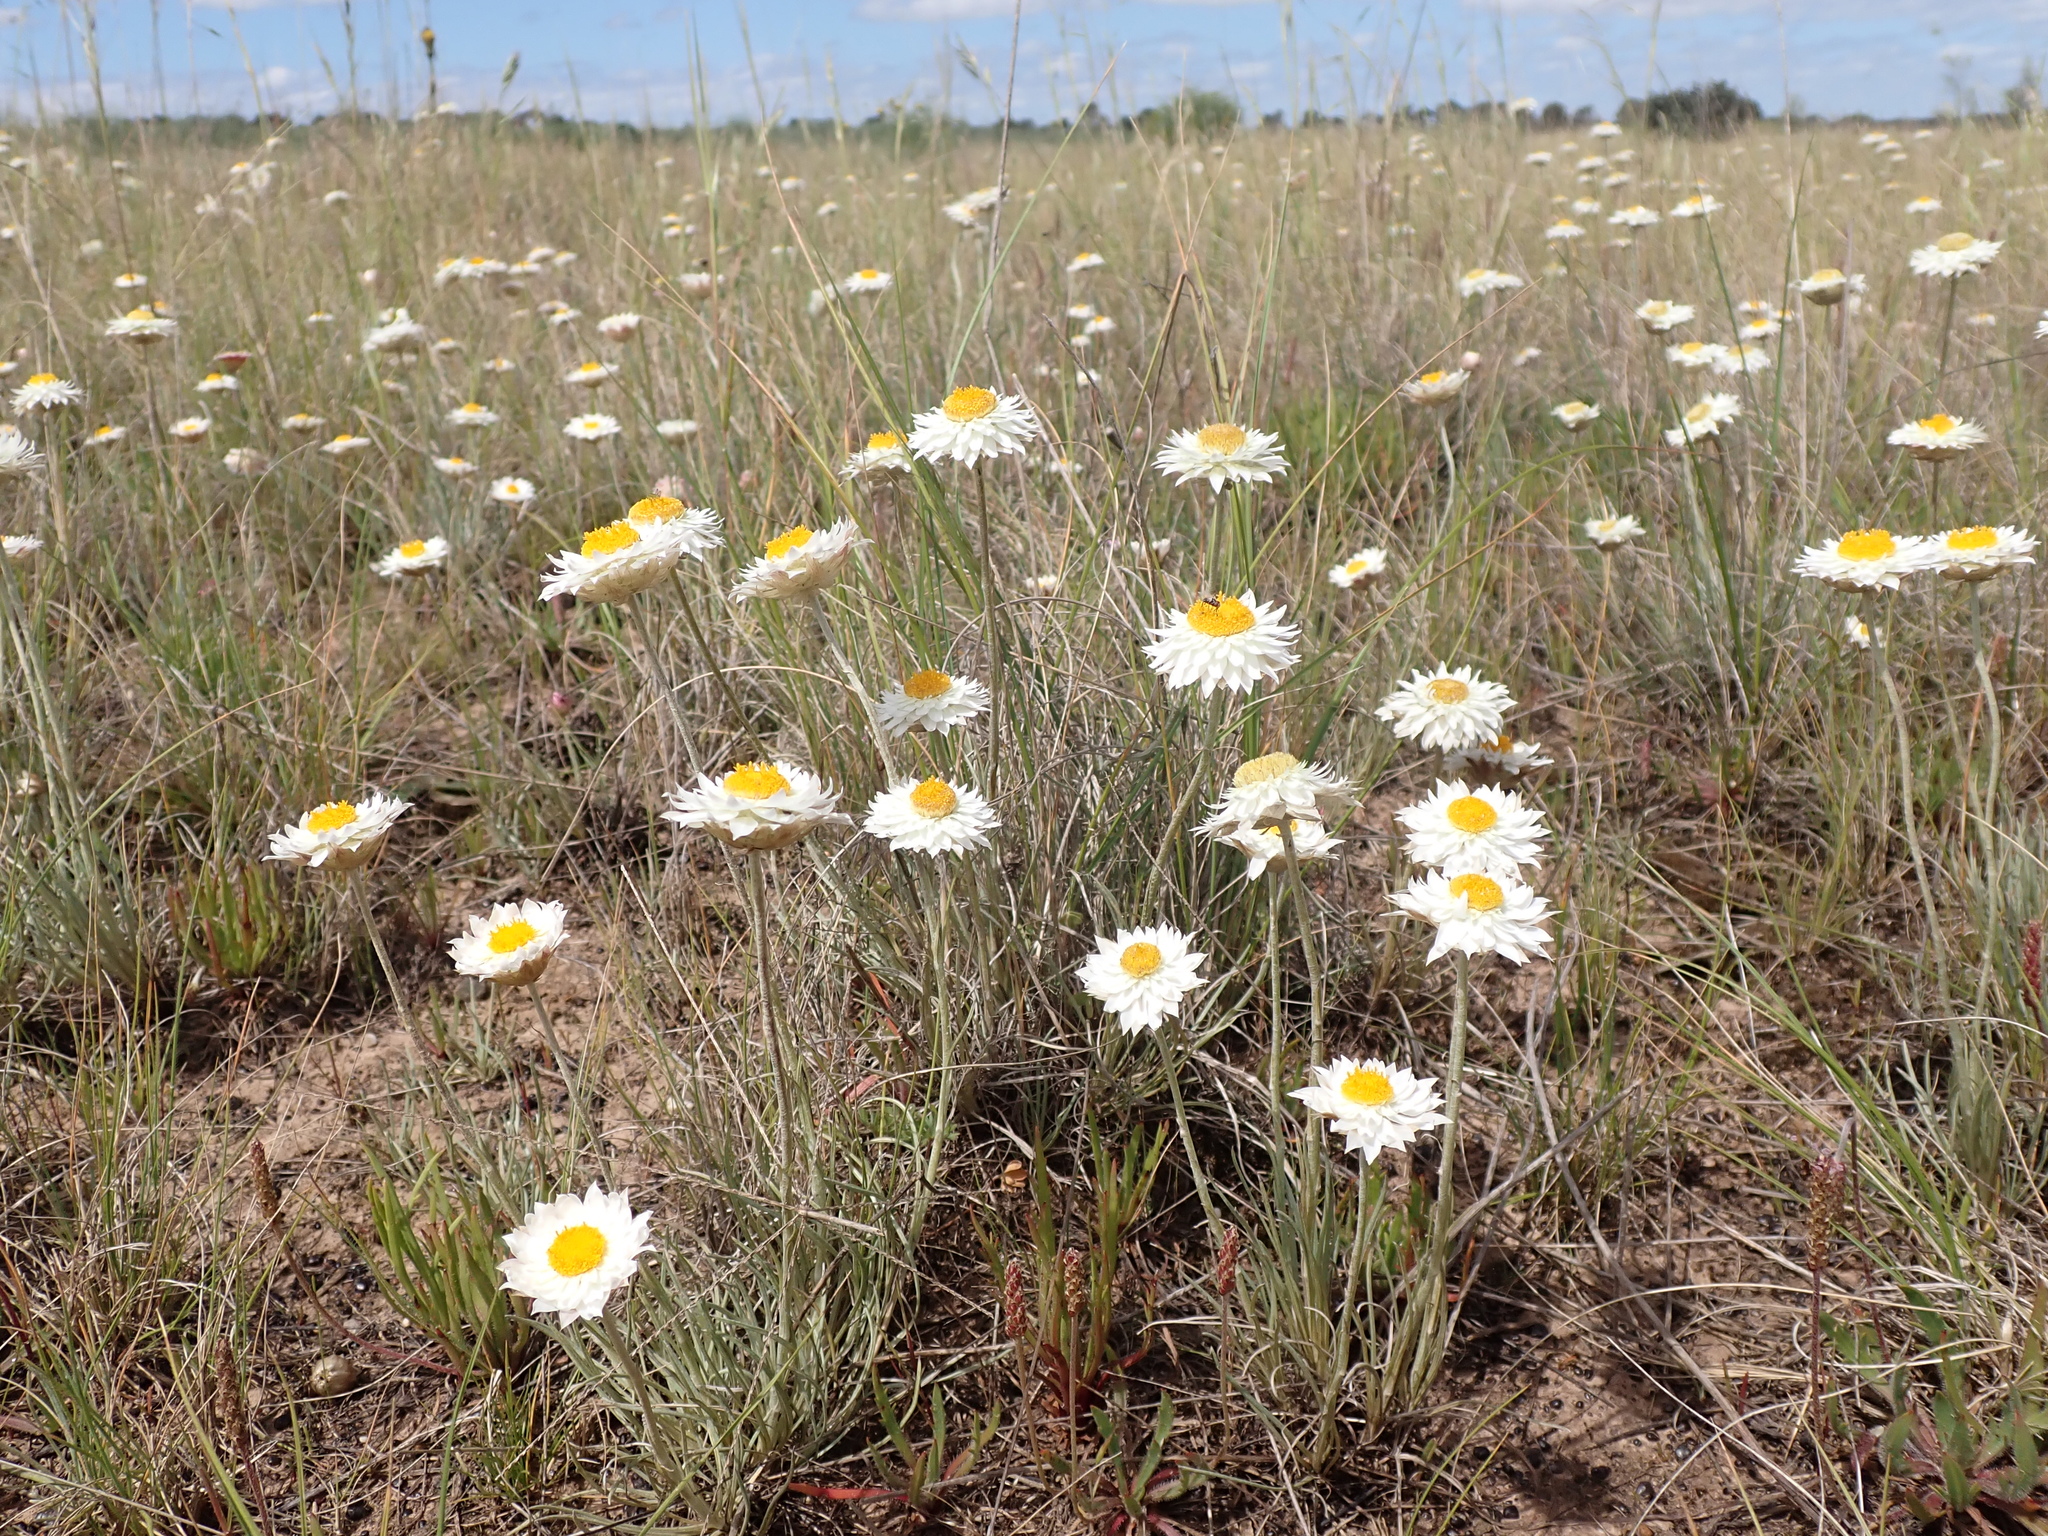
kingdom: Plantae
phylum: Tracheophyta
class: Magnoliopsida
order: Asterales
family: Asteraceae
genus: Leucochrysum
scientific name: Leucochrysum albicans
